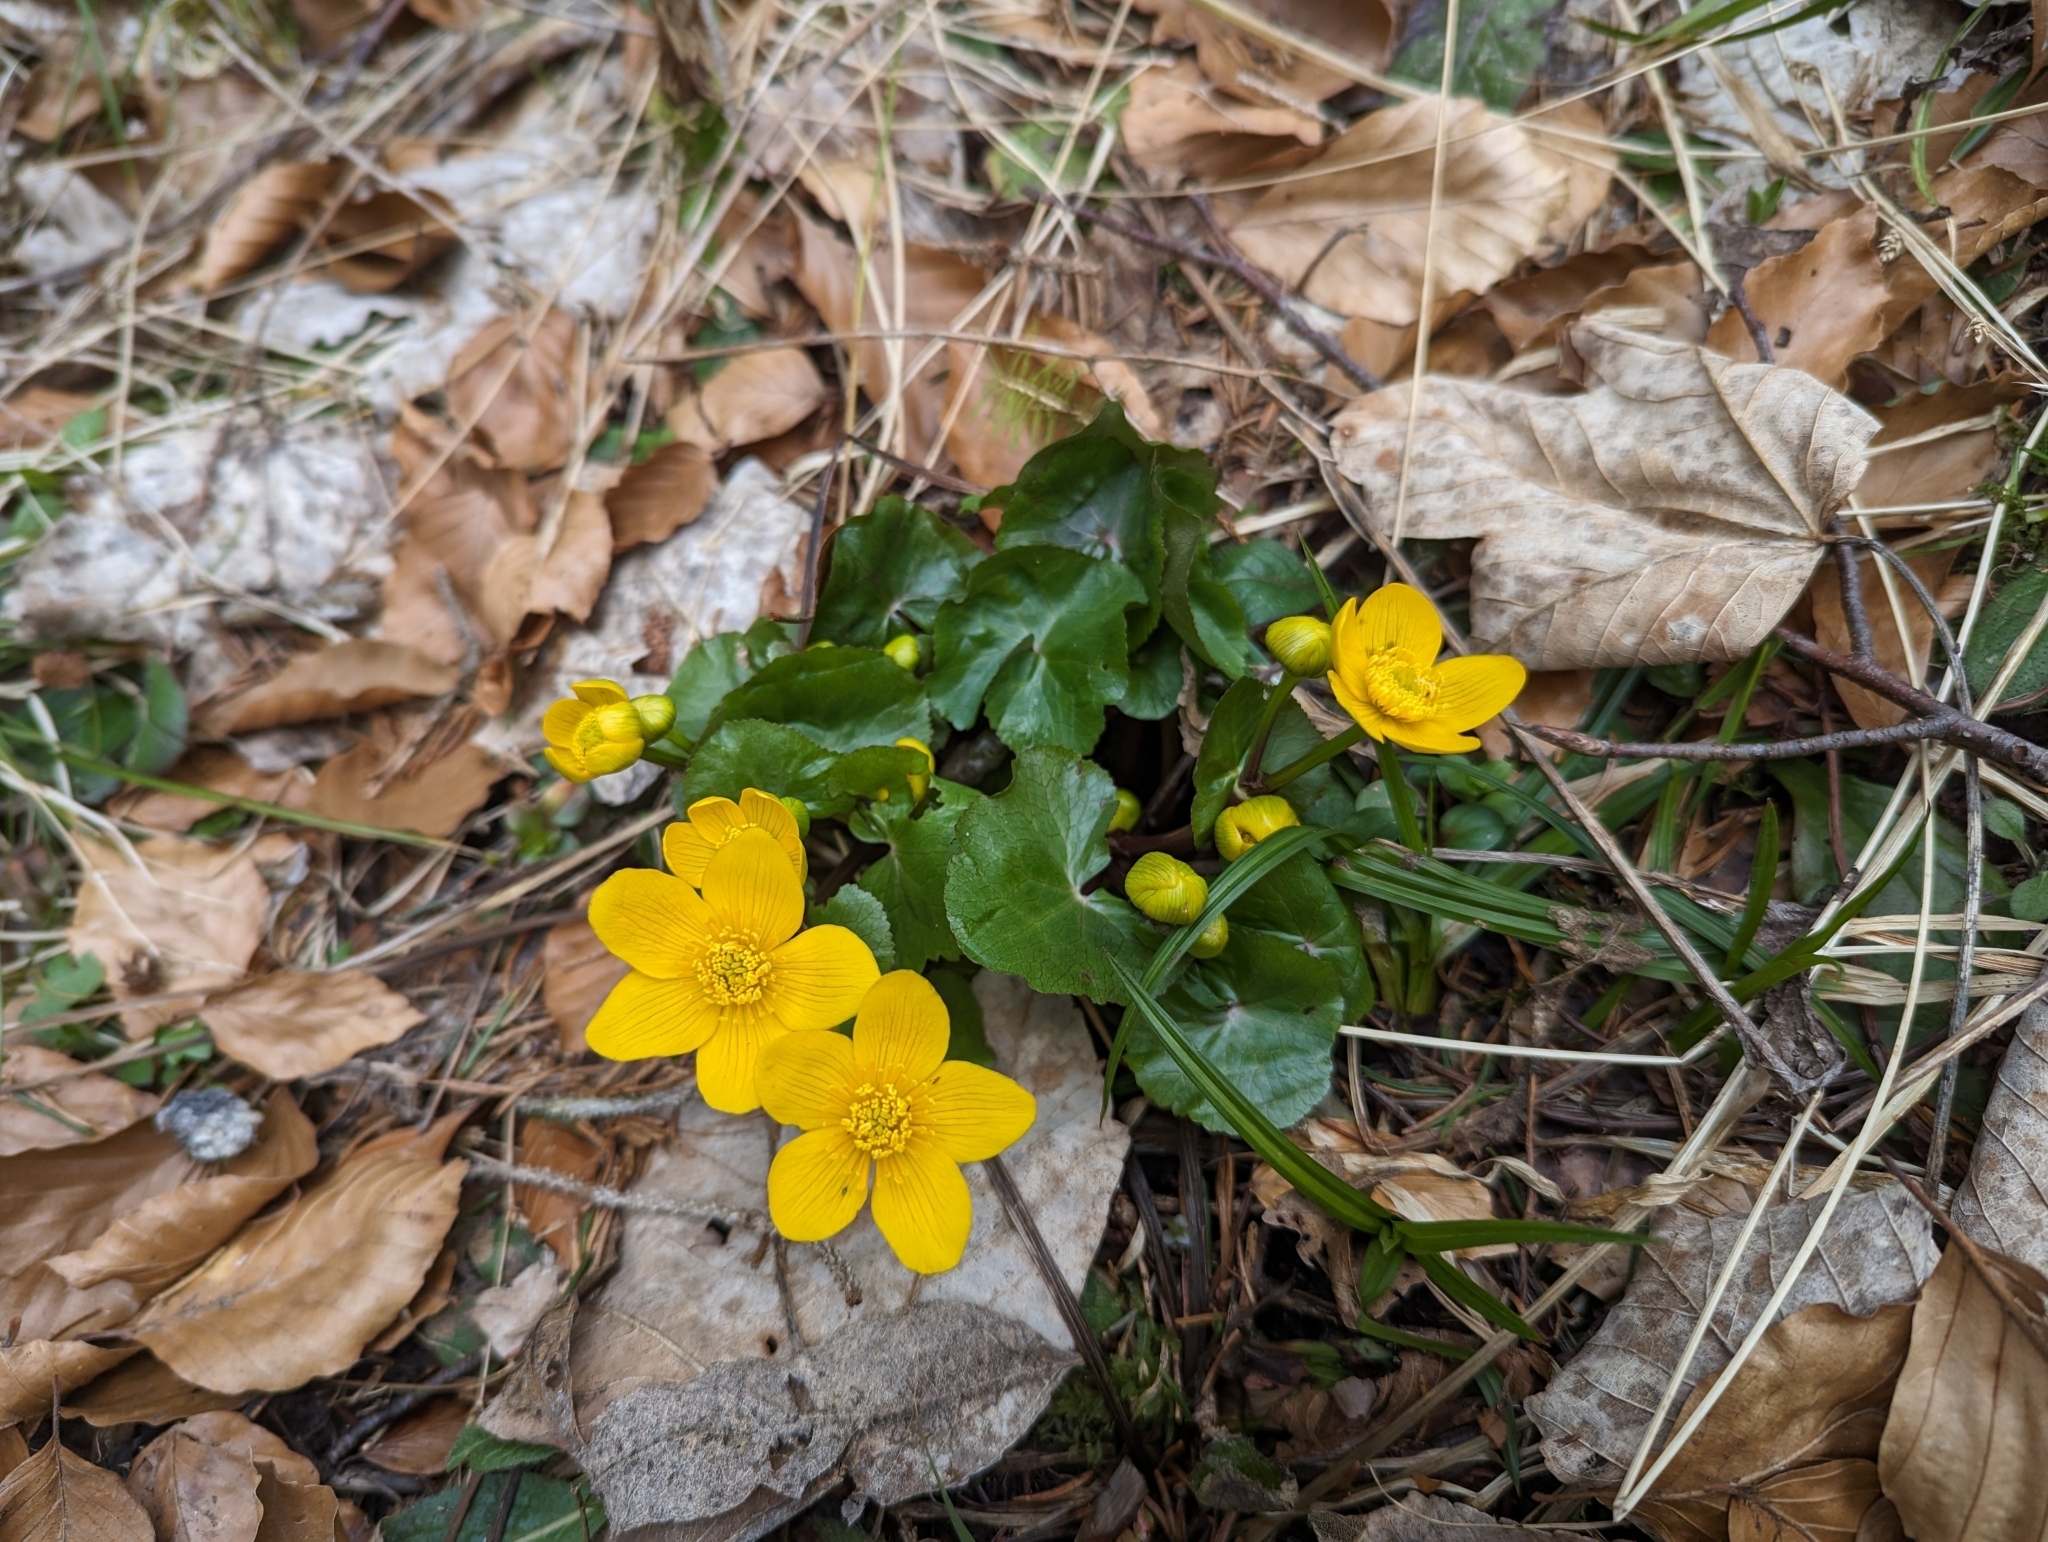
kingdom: Plantae
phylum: Tracheophyta
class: Magnoliopsida
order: Ranunculales
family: Ranunculaceae
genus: Caltha
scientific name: Caltha palustris
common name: Marsh marigold
